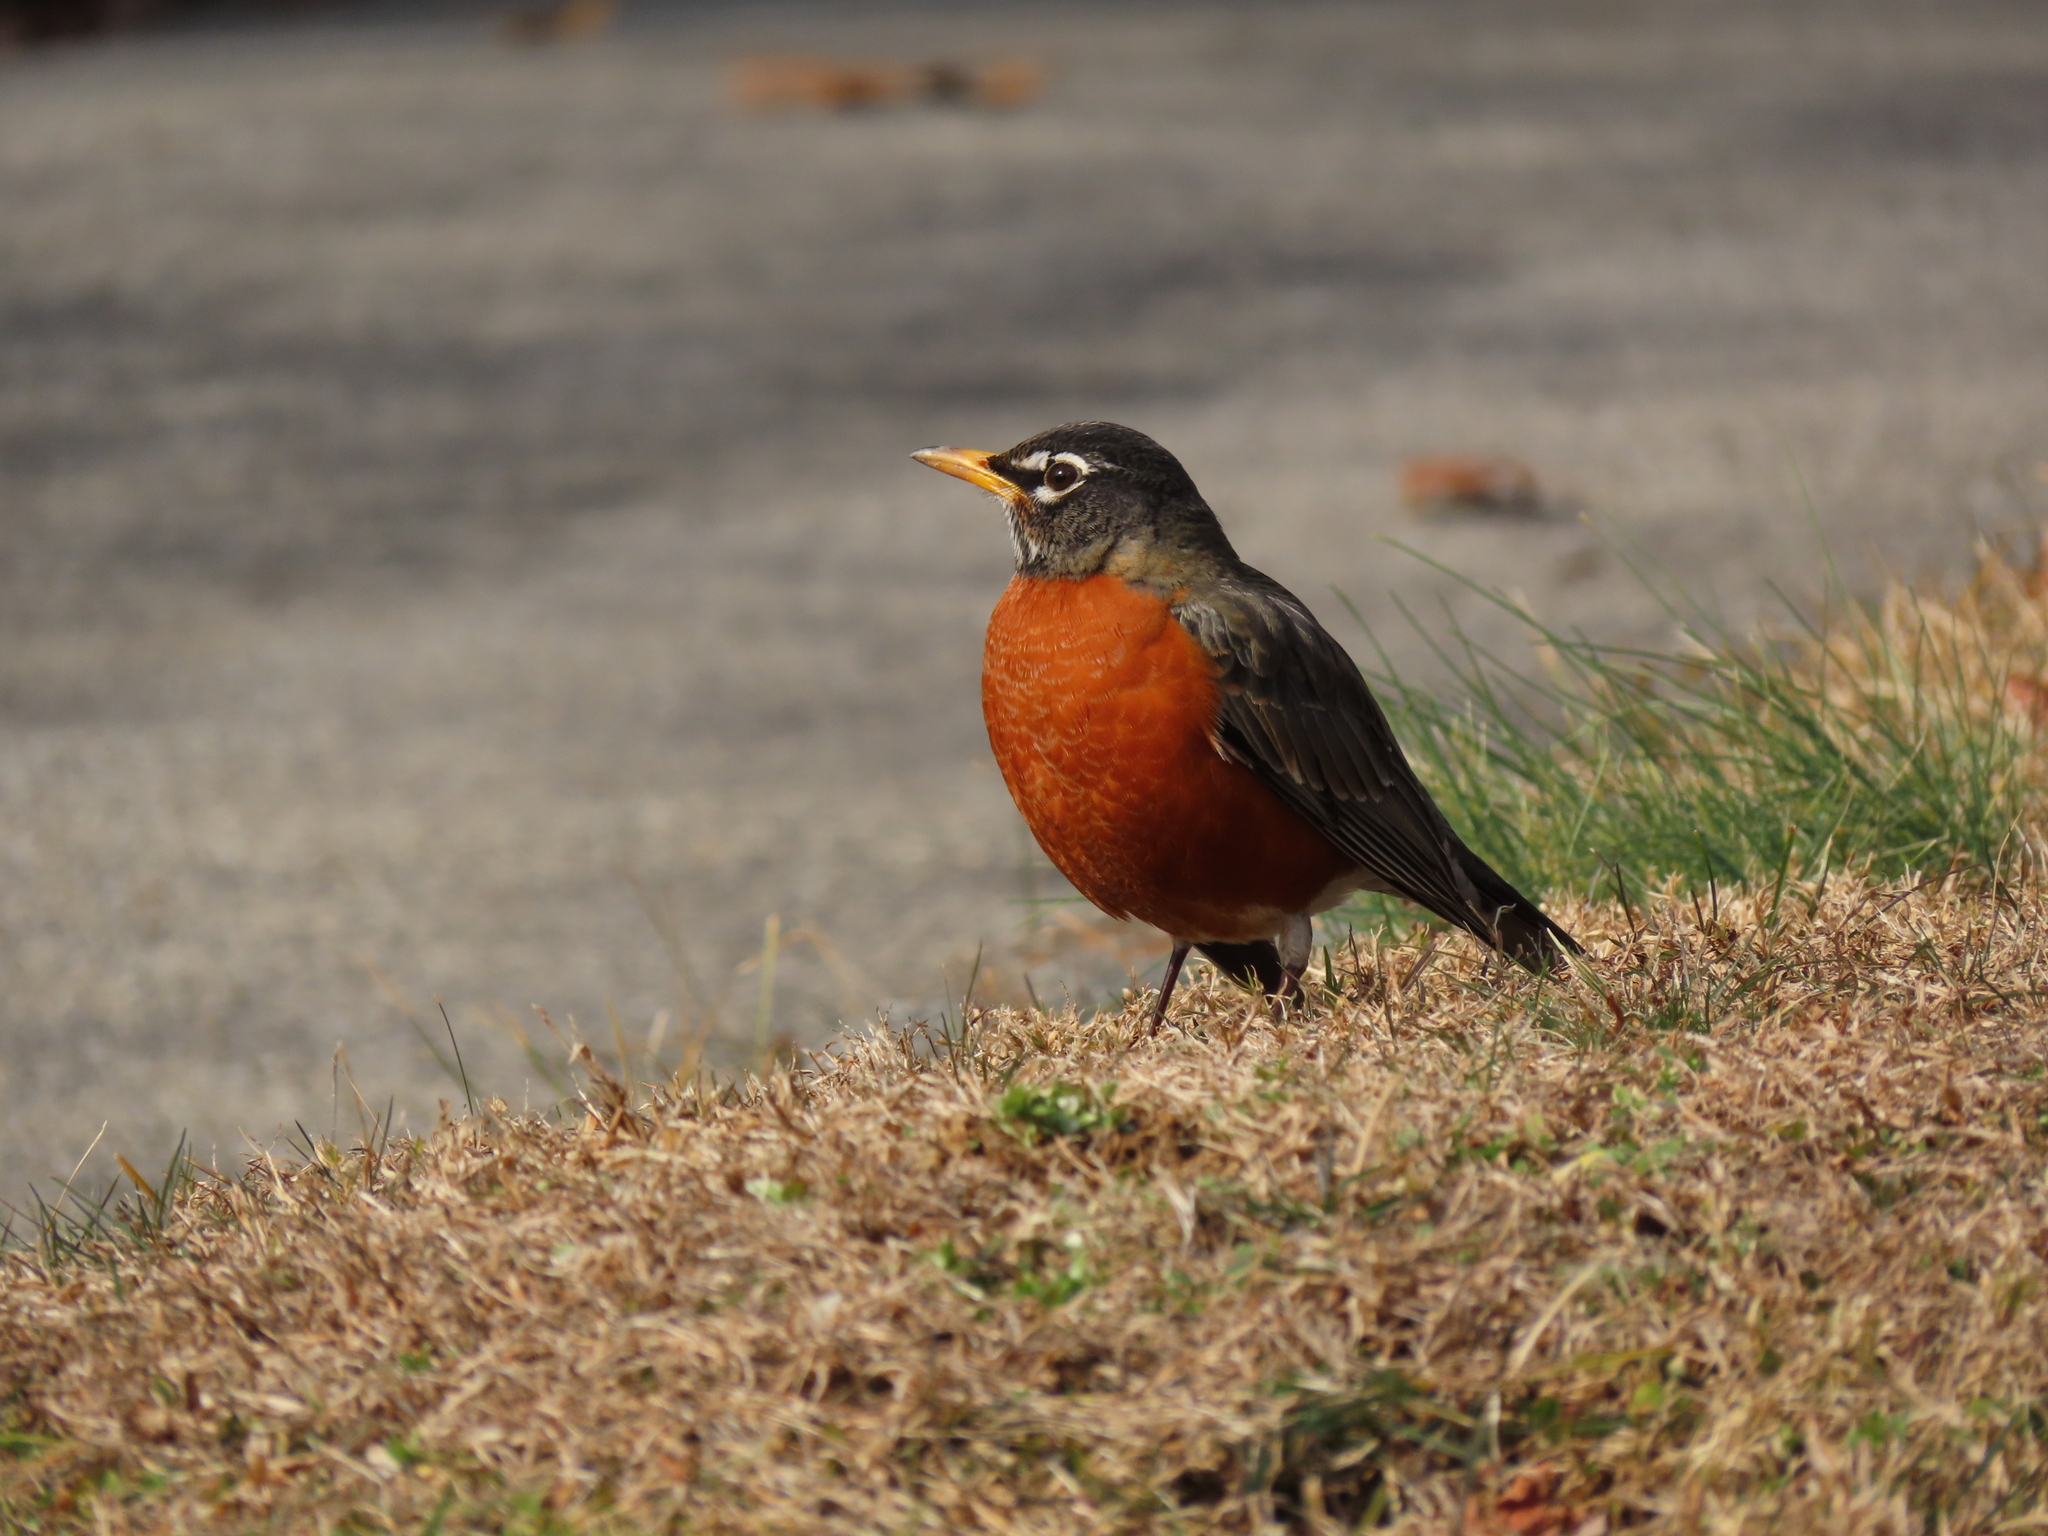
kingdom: Animalia
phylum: Chordata
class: Aves
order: Passeriformes
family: Turdidae
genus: Turdus
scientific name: Turdus migratorius
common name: American robin
